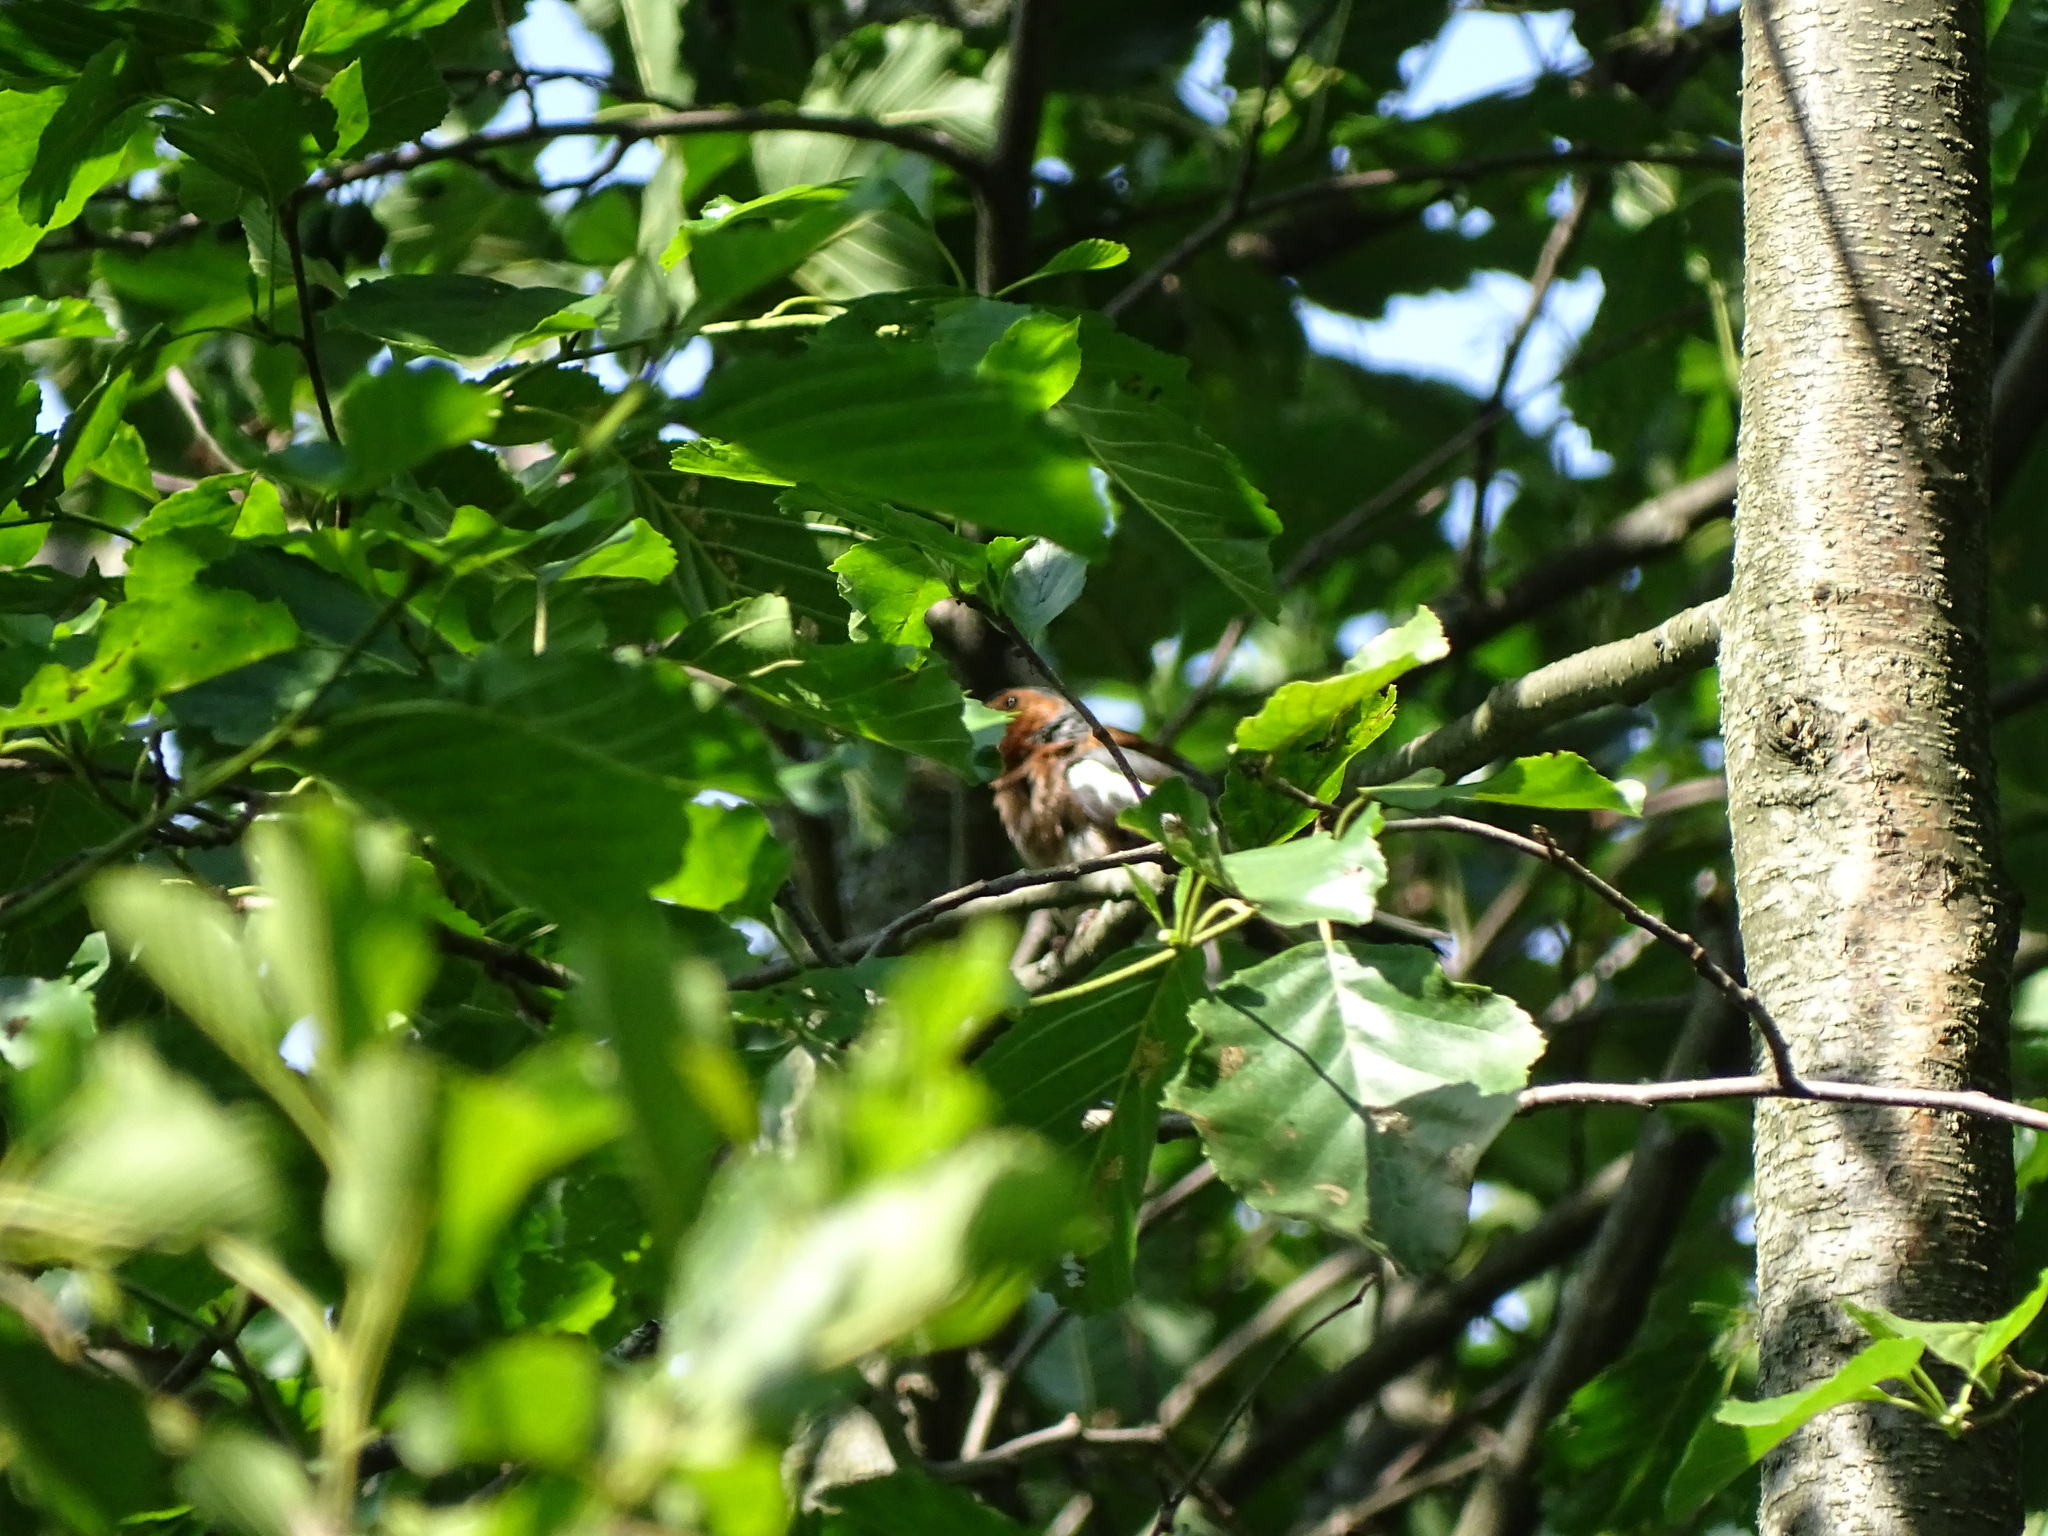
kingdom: Animalia
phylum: Chordata
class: Aves
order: Passeriformes
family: Fringillidae
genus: Fringilla
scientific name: Fringilla coelebs
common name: Common chaffinch
